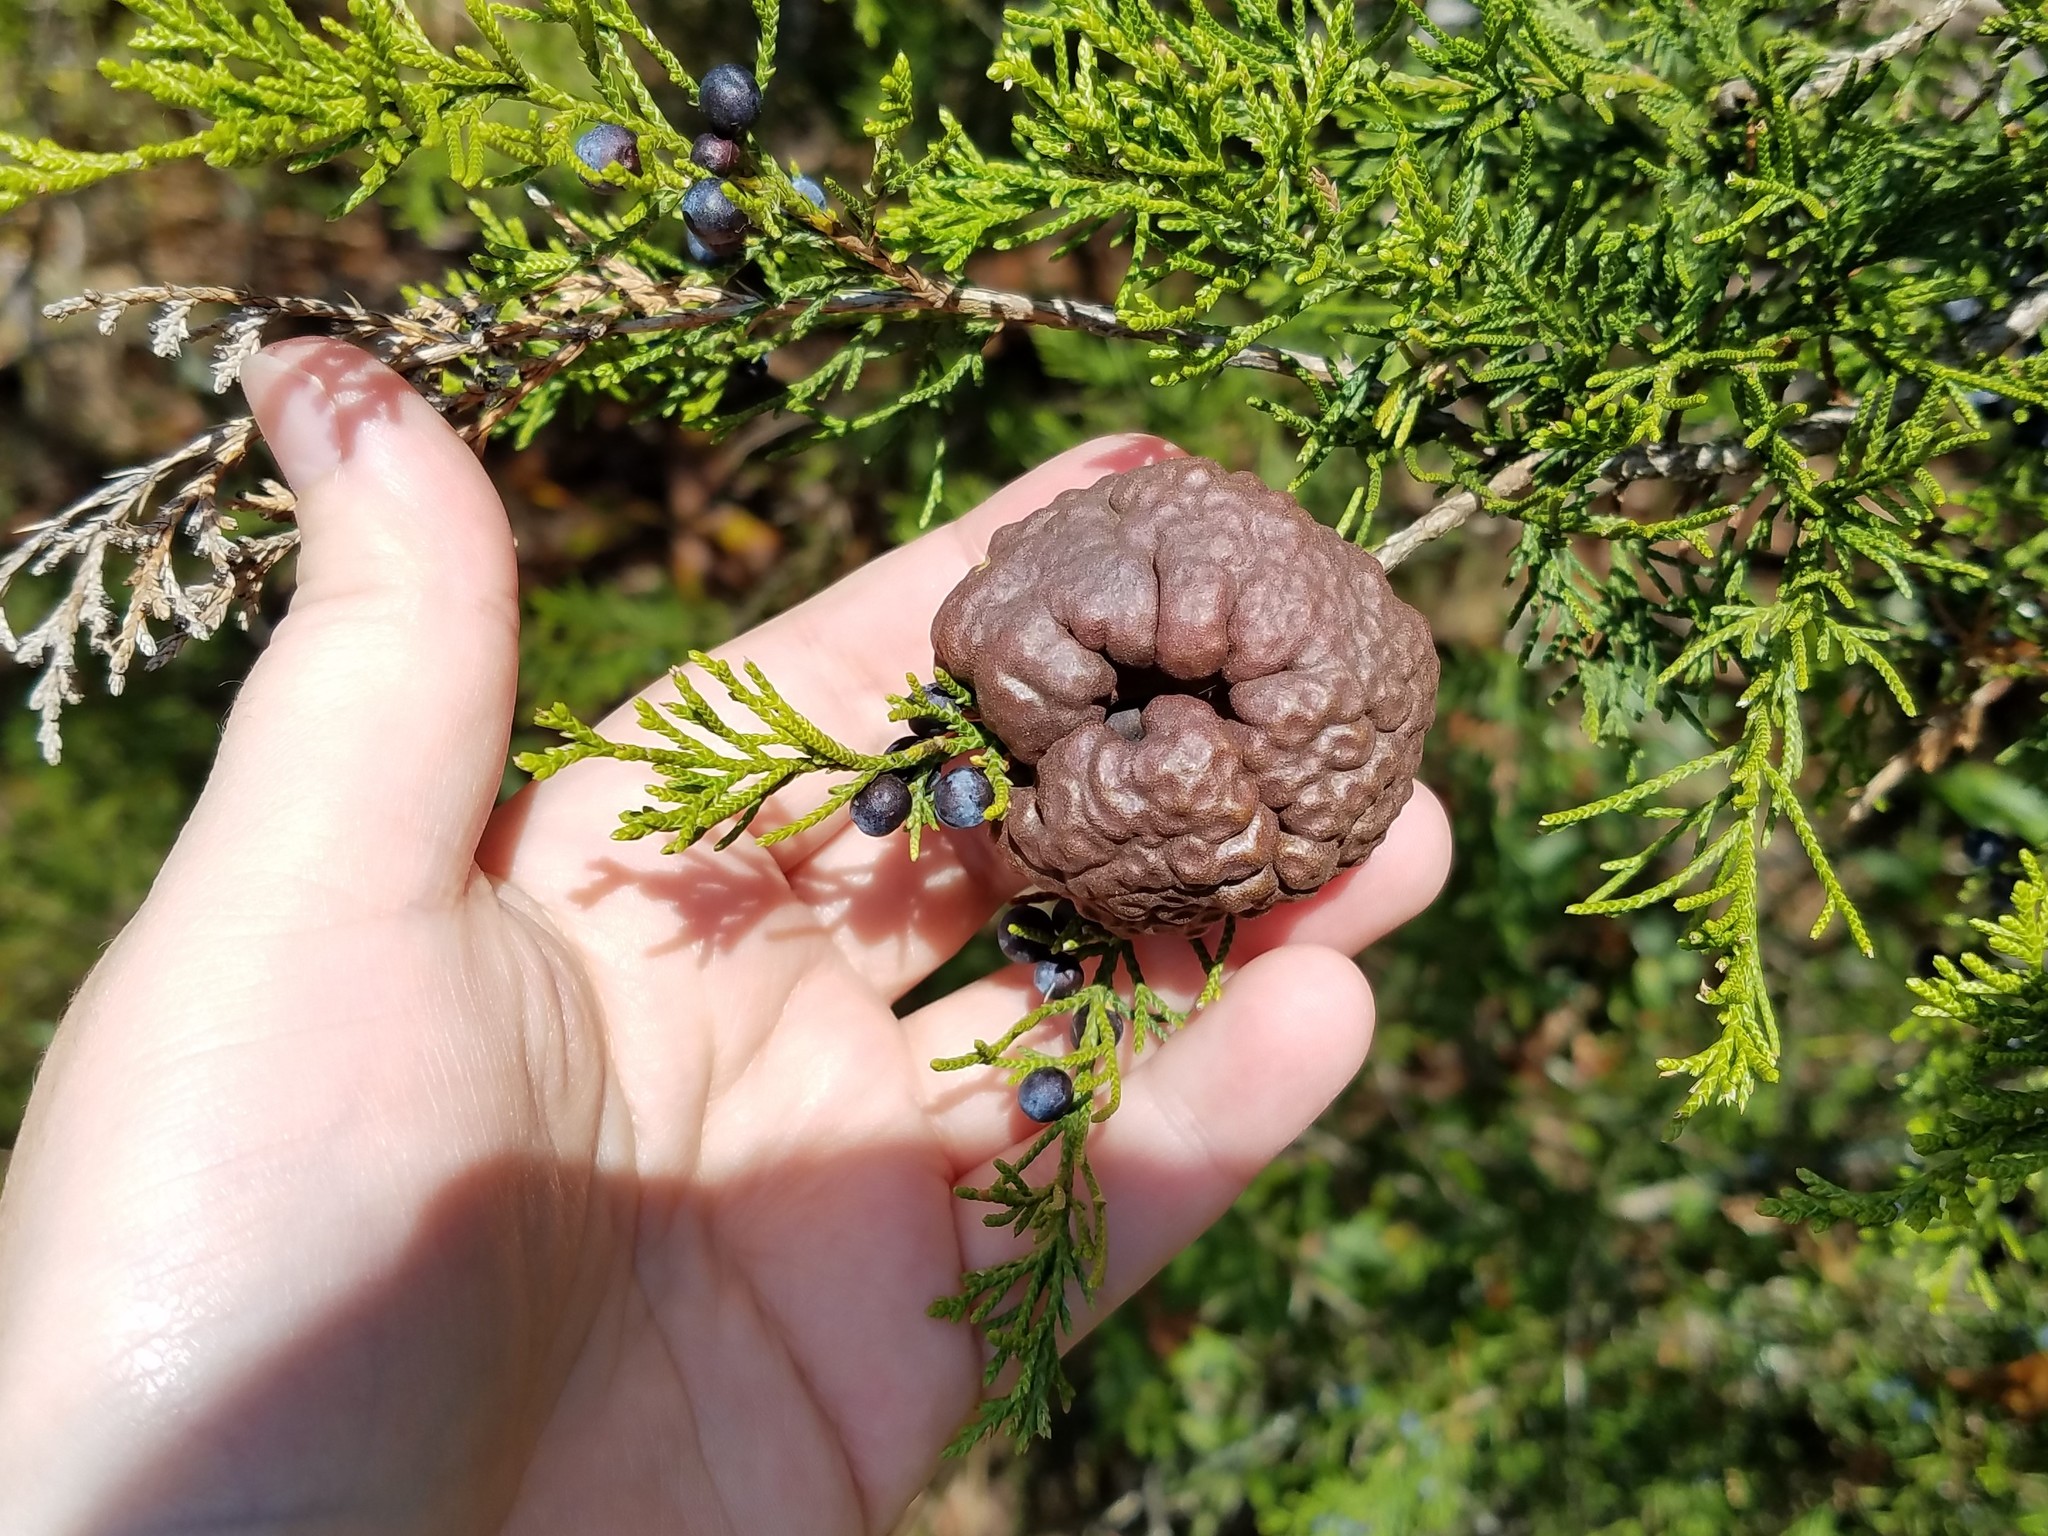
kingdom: Fungi
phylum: Basidiomycota
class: Pucciniomycetes
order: Pucciniales
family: Gymnosporangiaceae
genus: Gymnosporangium
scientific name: Gymnosporangium juniperi-virginianae
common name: Juniper-apple rust
